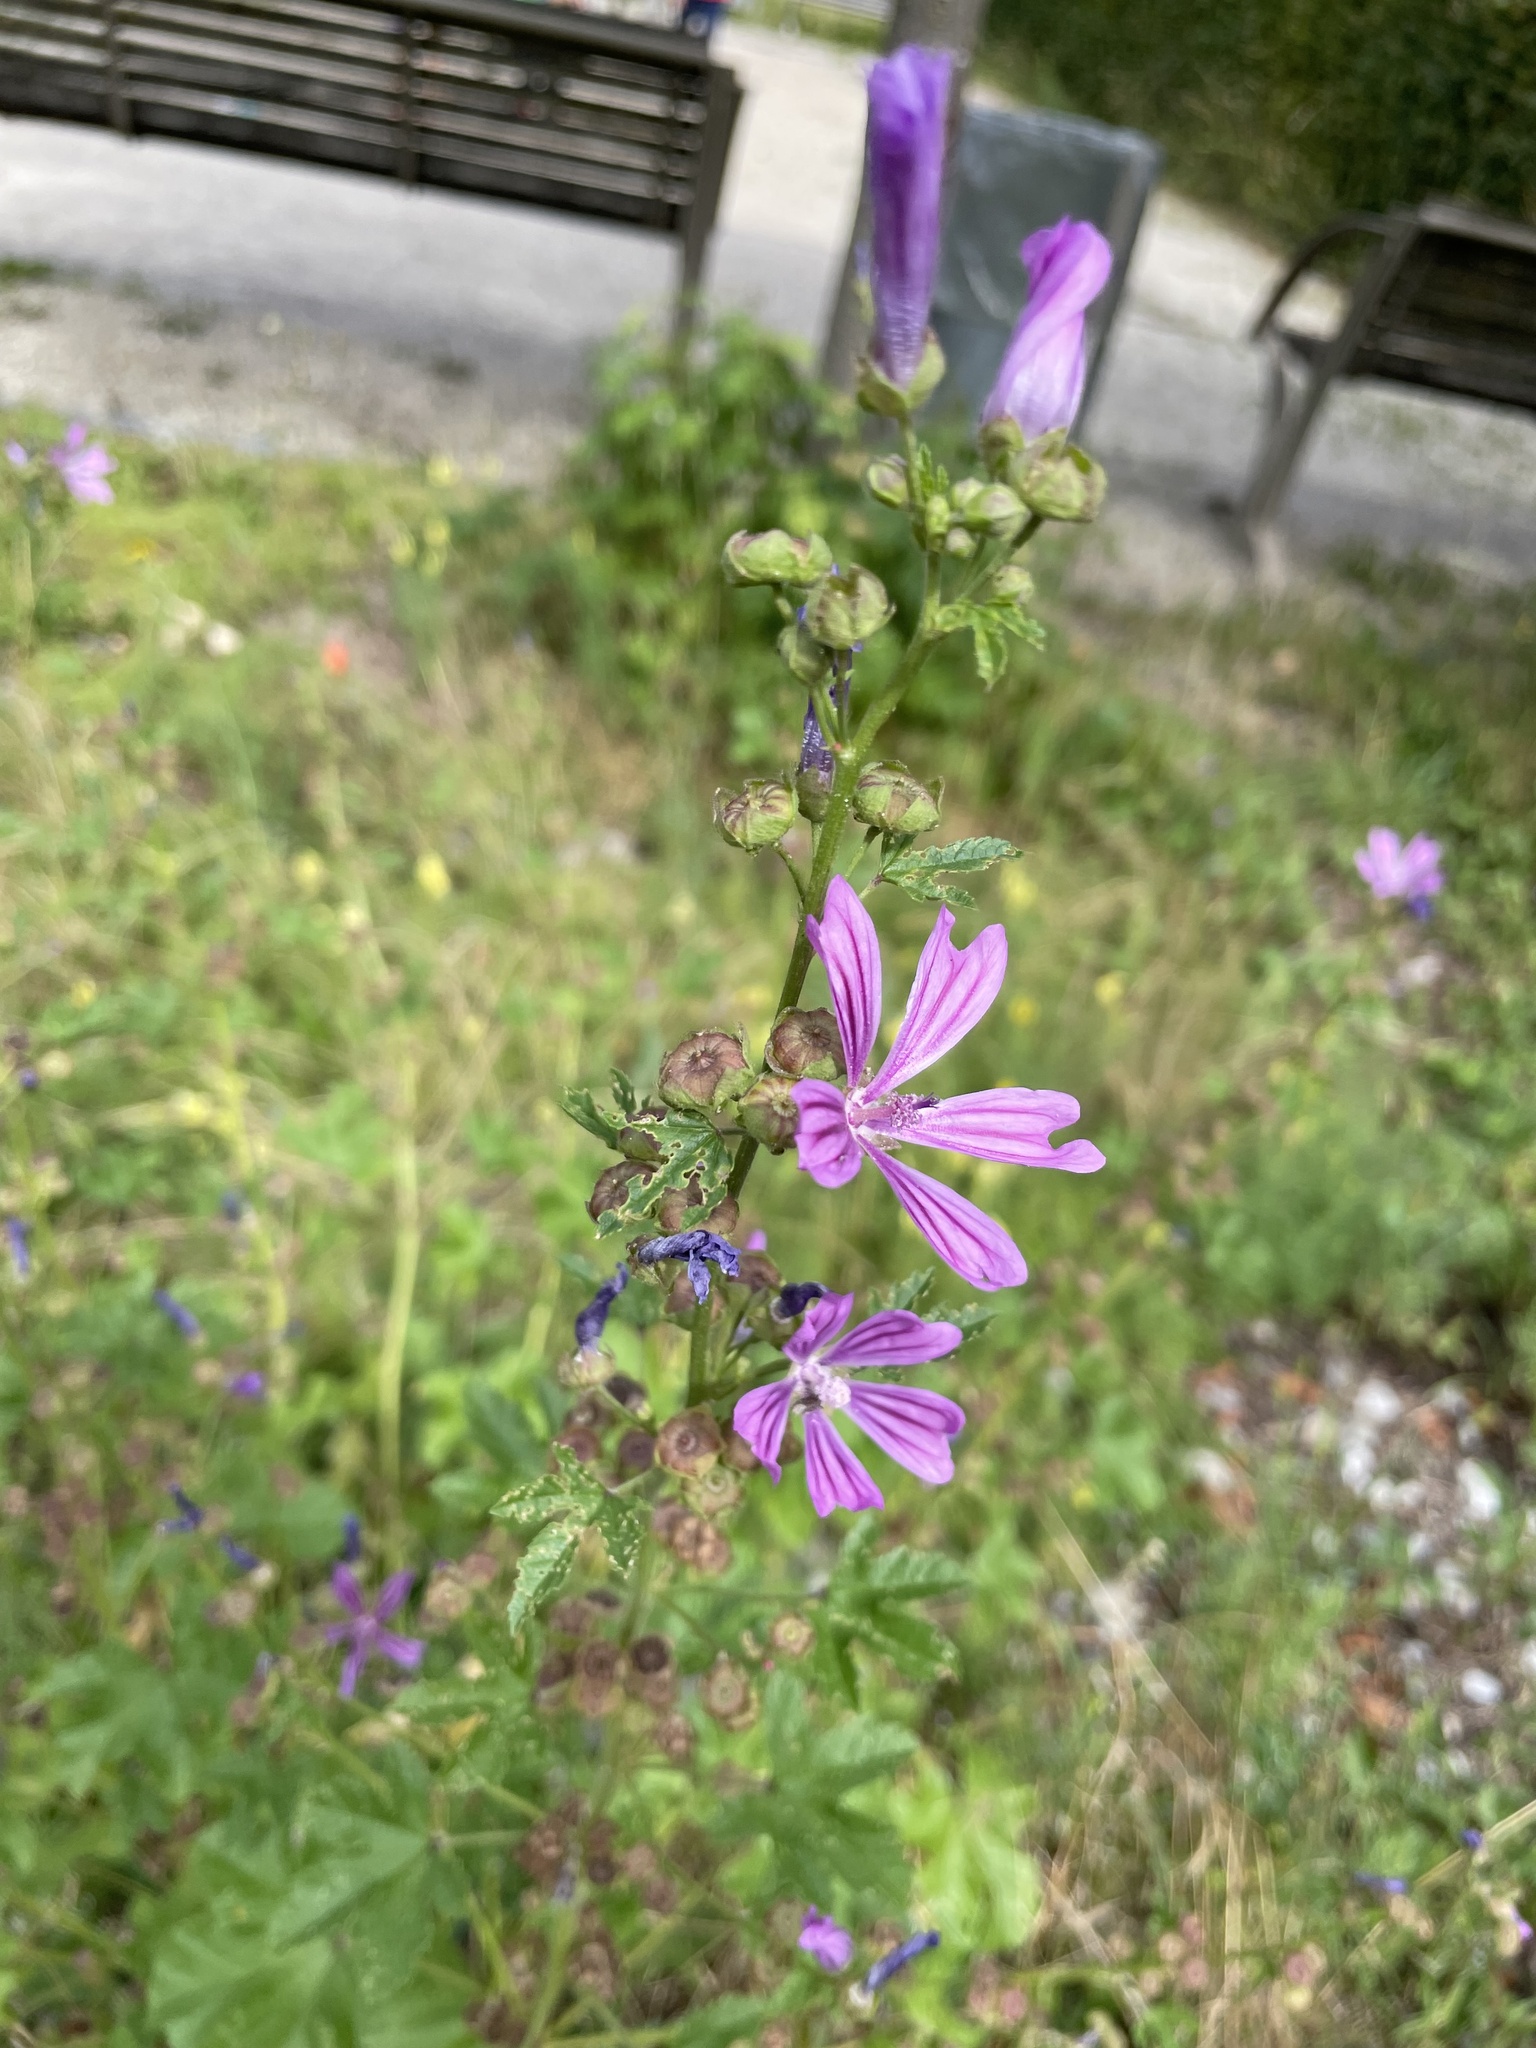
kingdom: Plantae
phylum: Tracheophyta
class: Magnoliopsida
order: Malvales
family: Malvaceae
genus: Malva
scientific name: Malva sylvestris
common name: Common mallow
